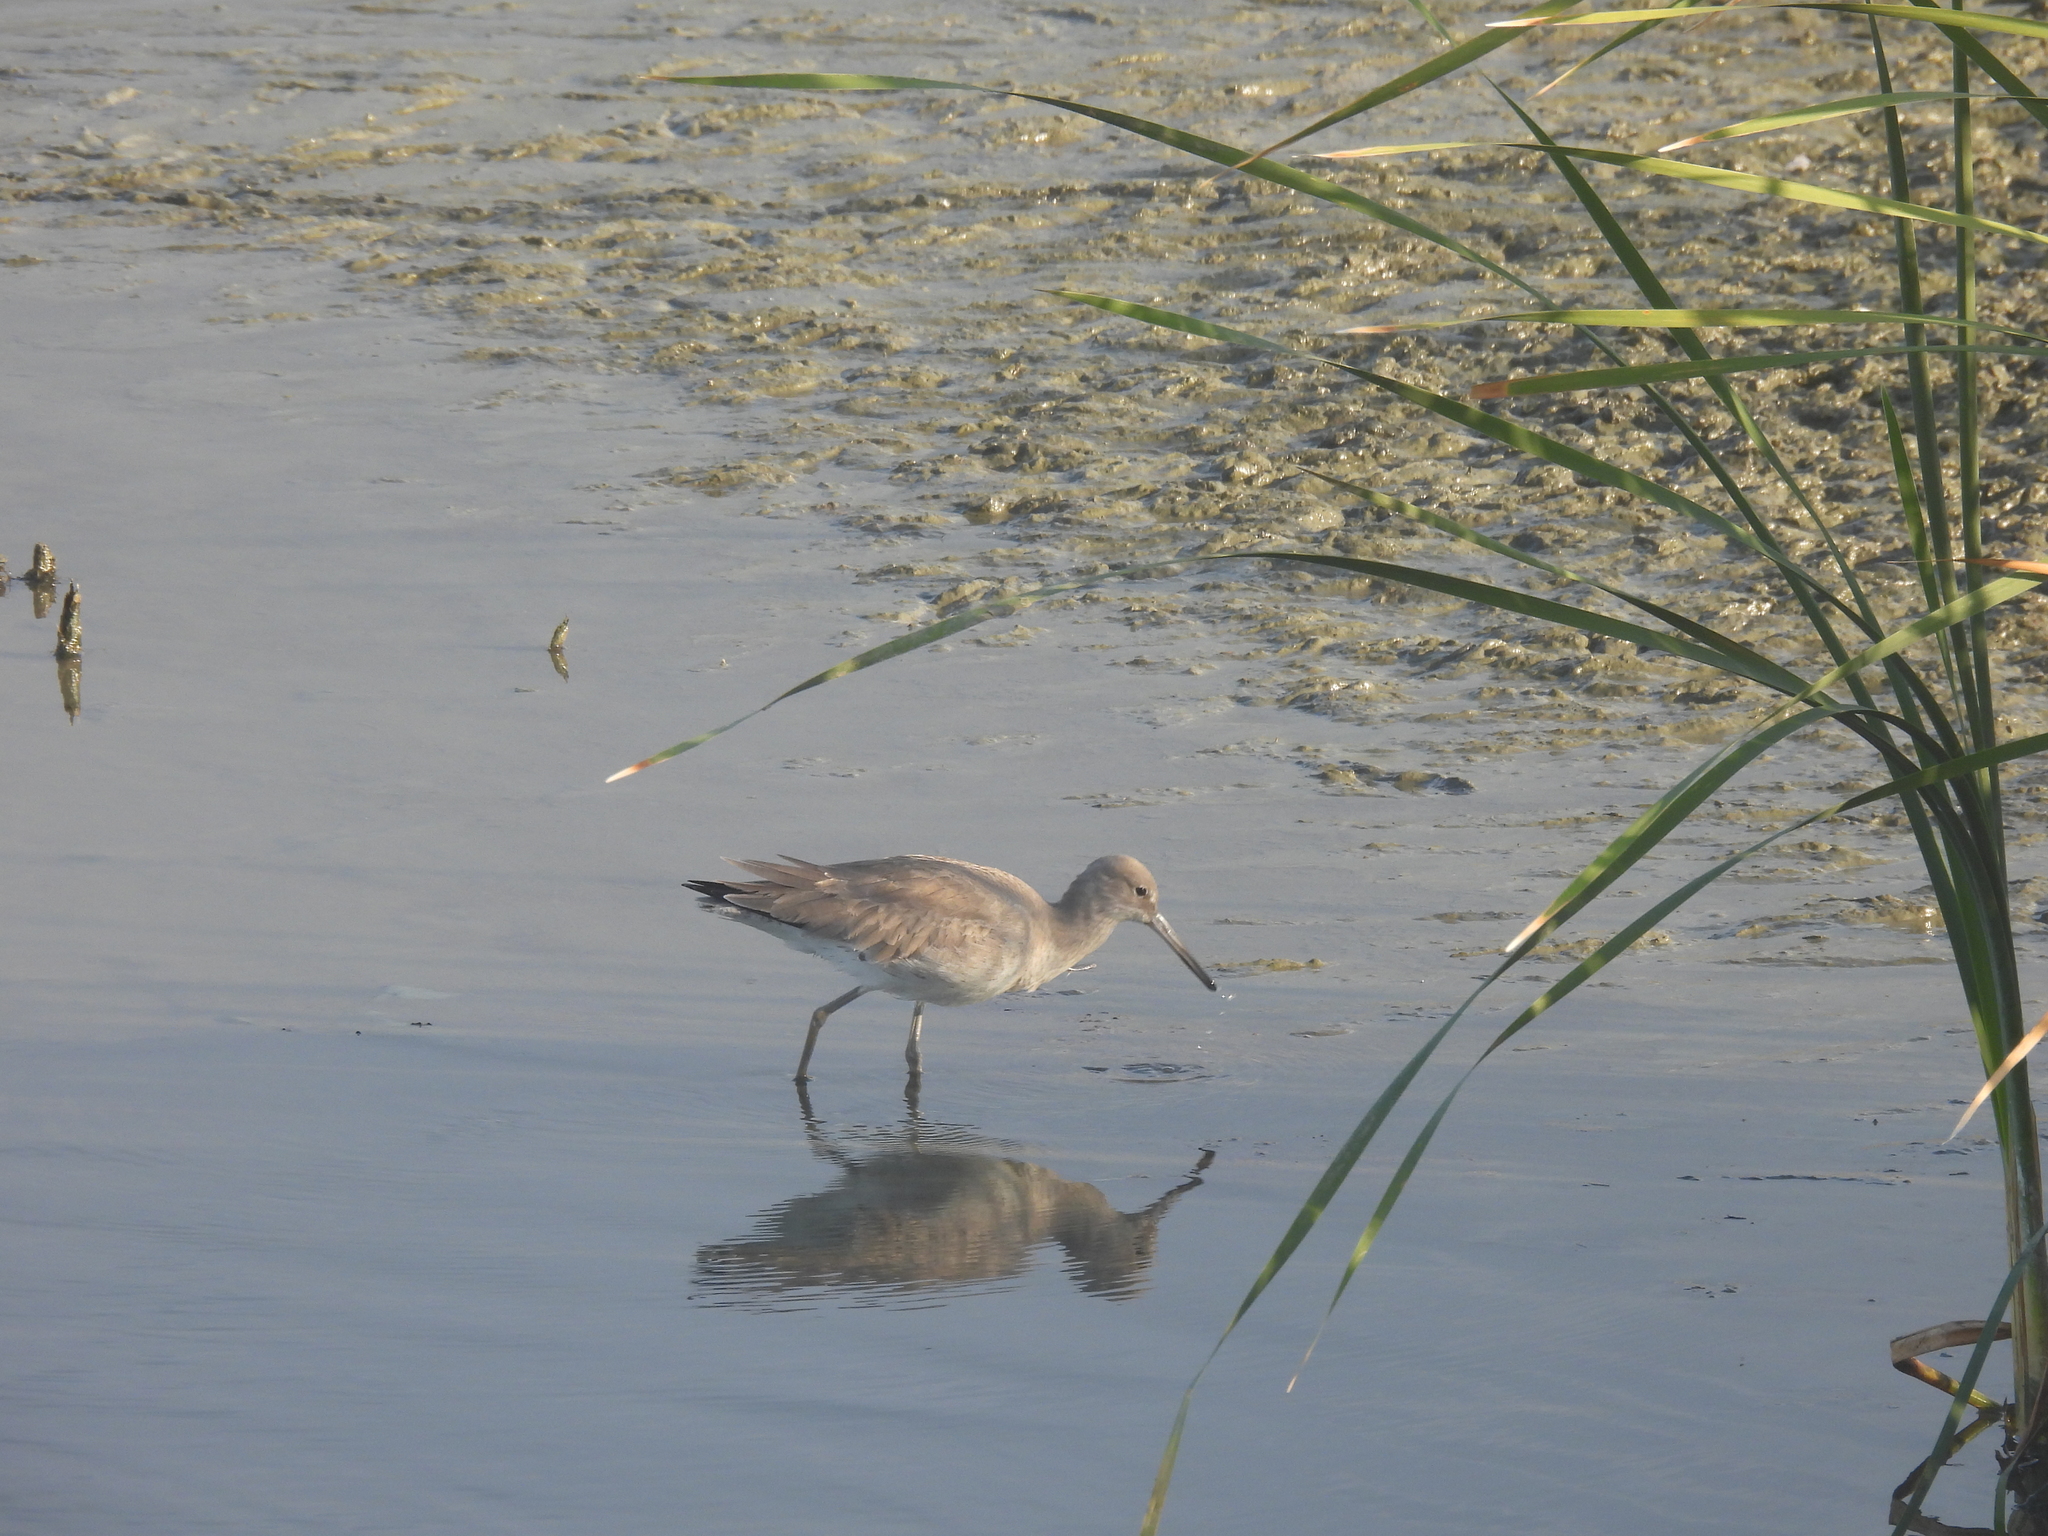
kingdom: Animalia
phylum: Chordata
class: Aves
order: Charadriiformes
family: Scolopacidae
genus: Tringa
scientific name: Tringa semipalmata
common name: Willet
